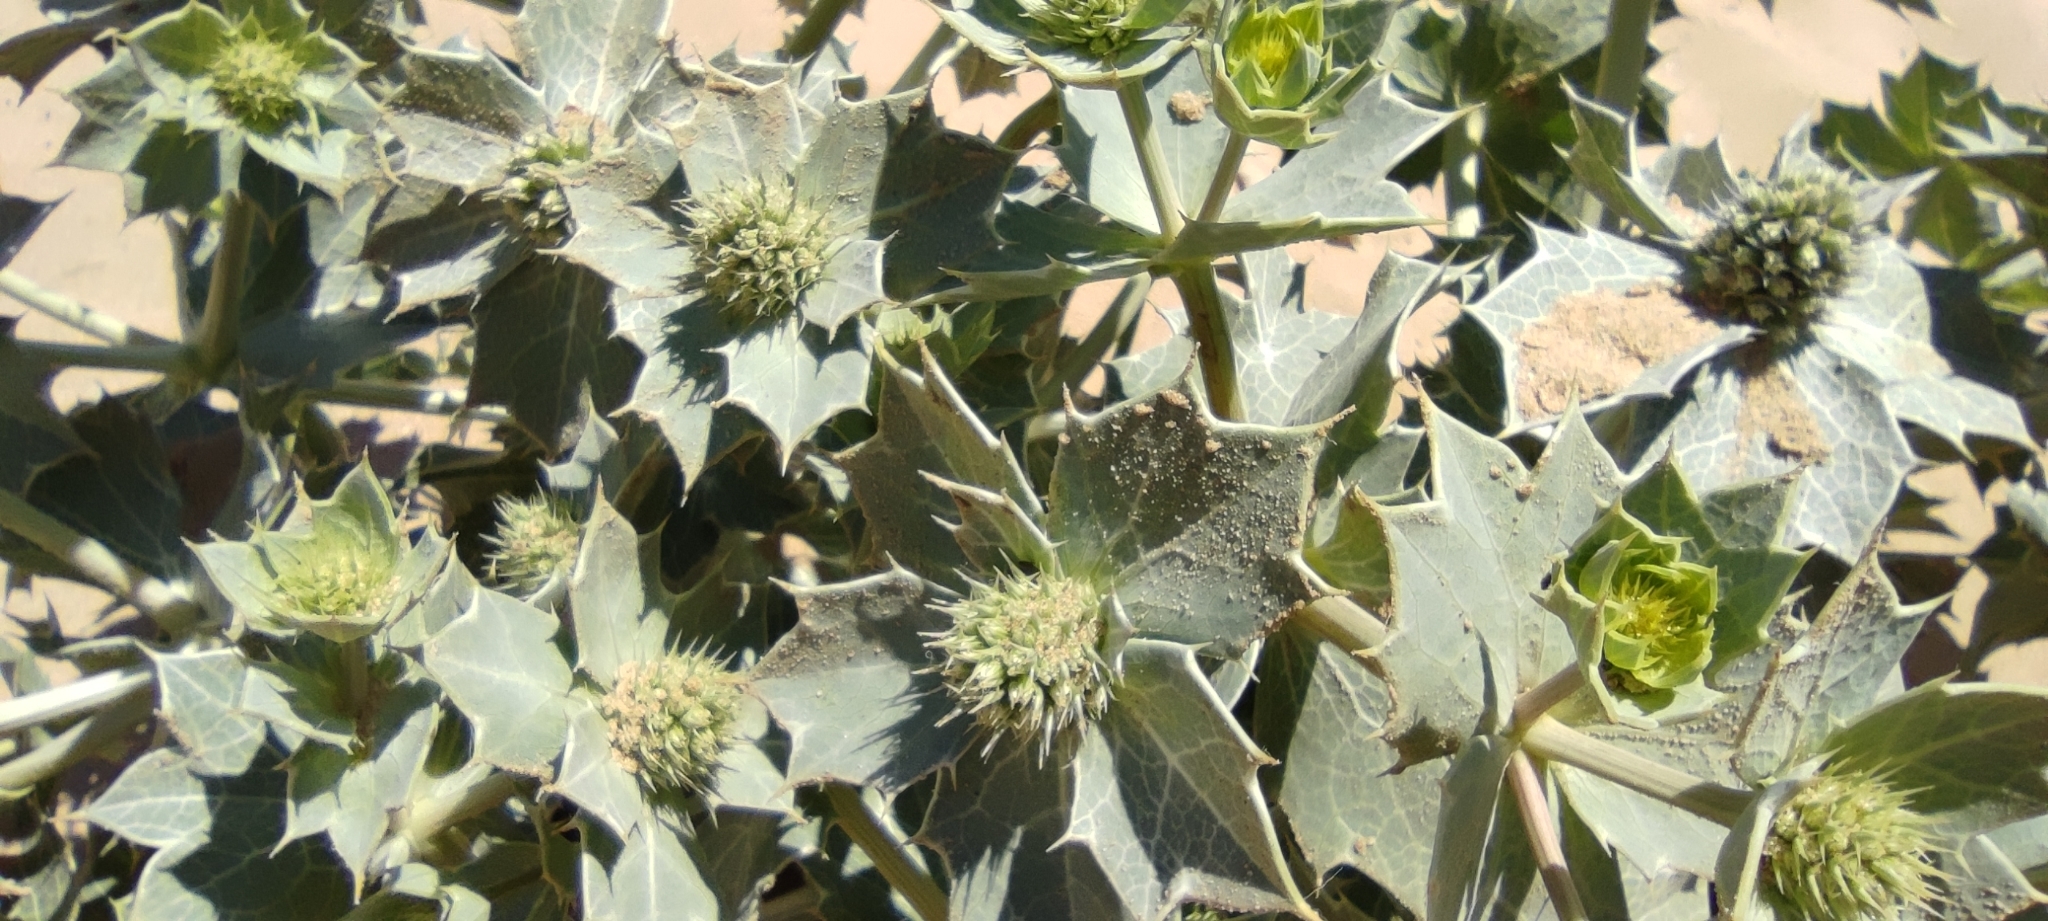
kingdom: Plantae
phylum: Tracheophyta
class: Magnoliopsida
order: Apiales
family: Apiaceae
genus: Eryngium
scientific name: Eryngium maritimum
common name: Sea-holly
